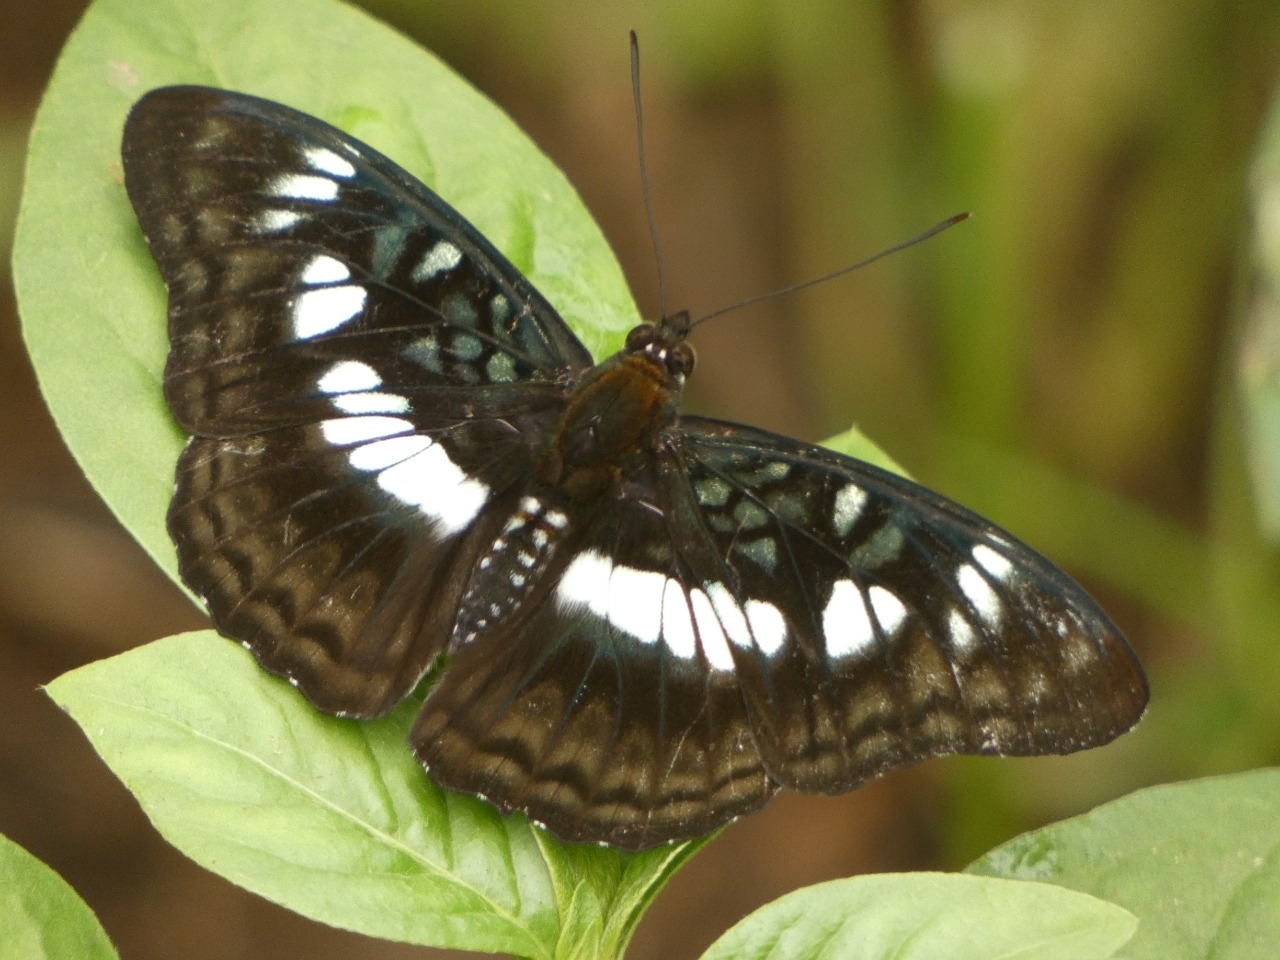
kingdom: Animalia
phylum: Arthropoda
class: Insecta
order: Lepidoptera
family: Nymphalidae
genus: Parathyma
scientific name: Parathyma ranga
